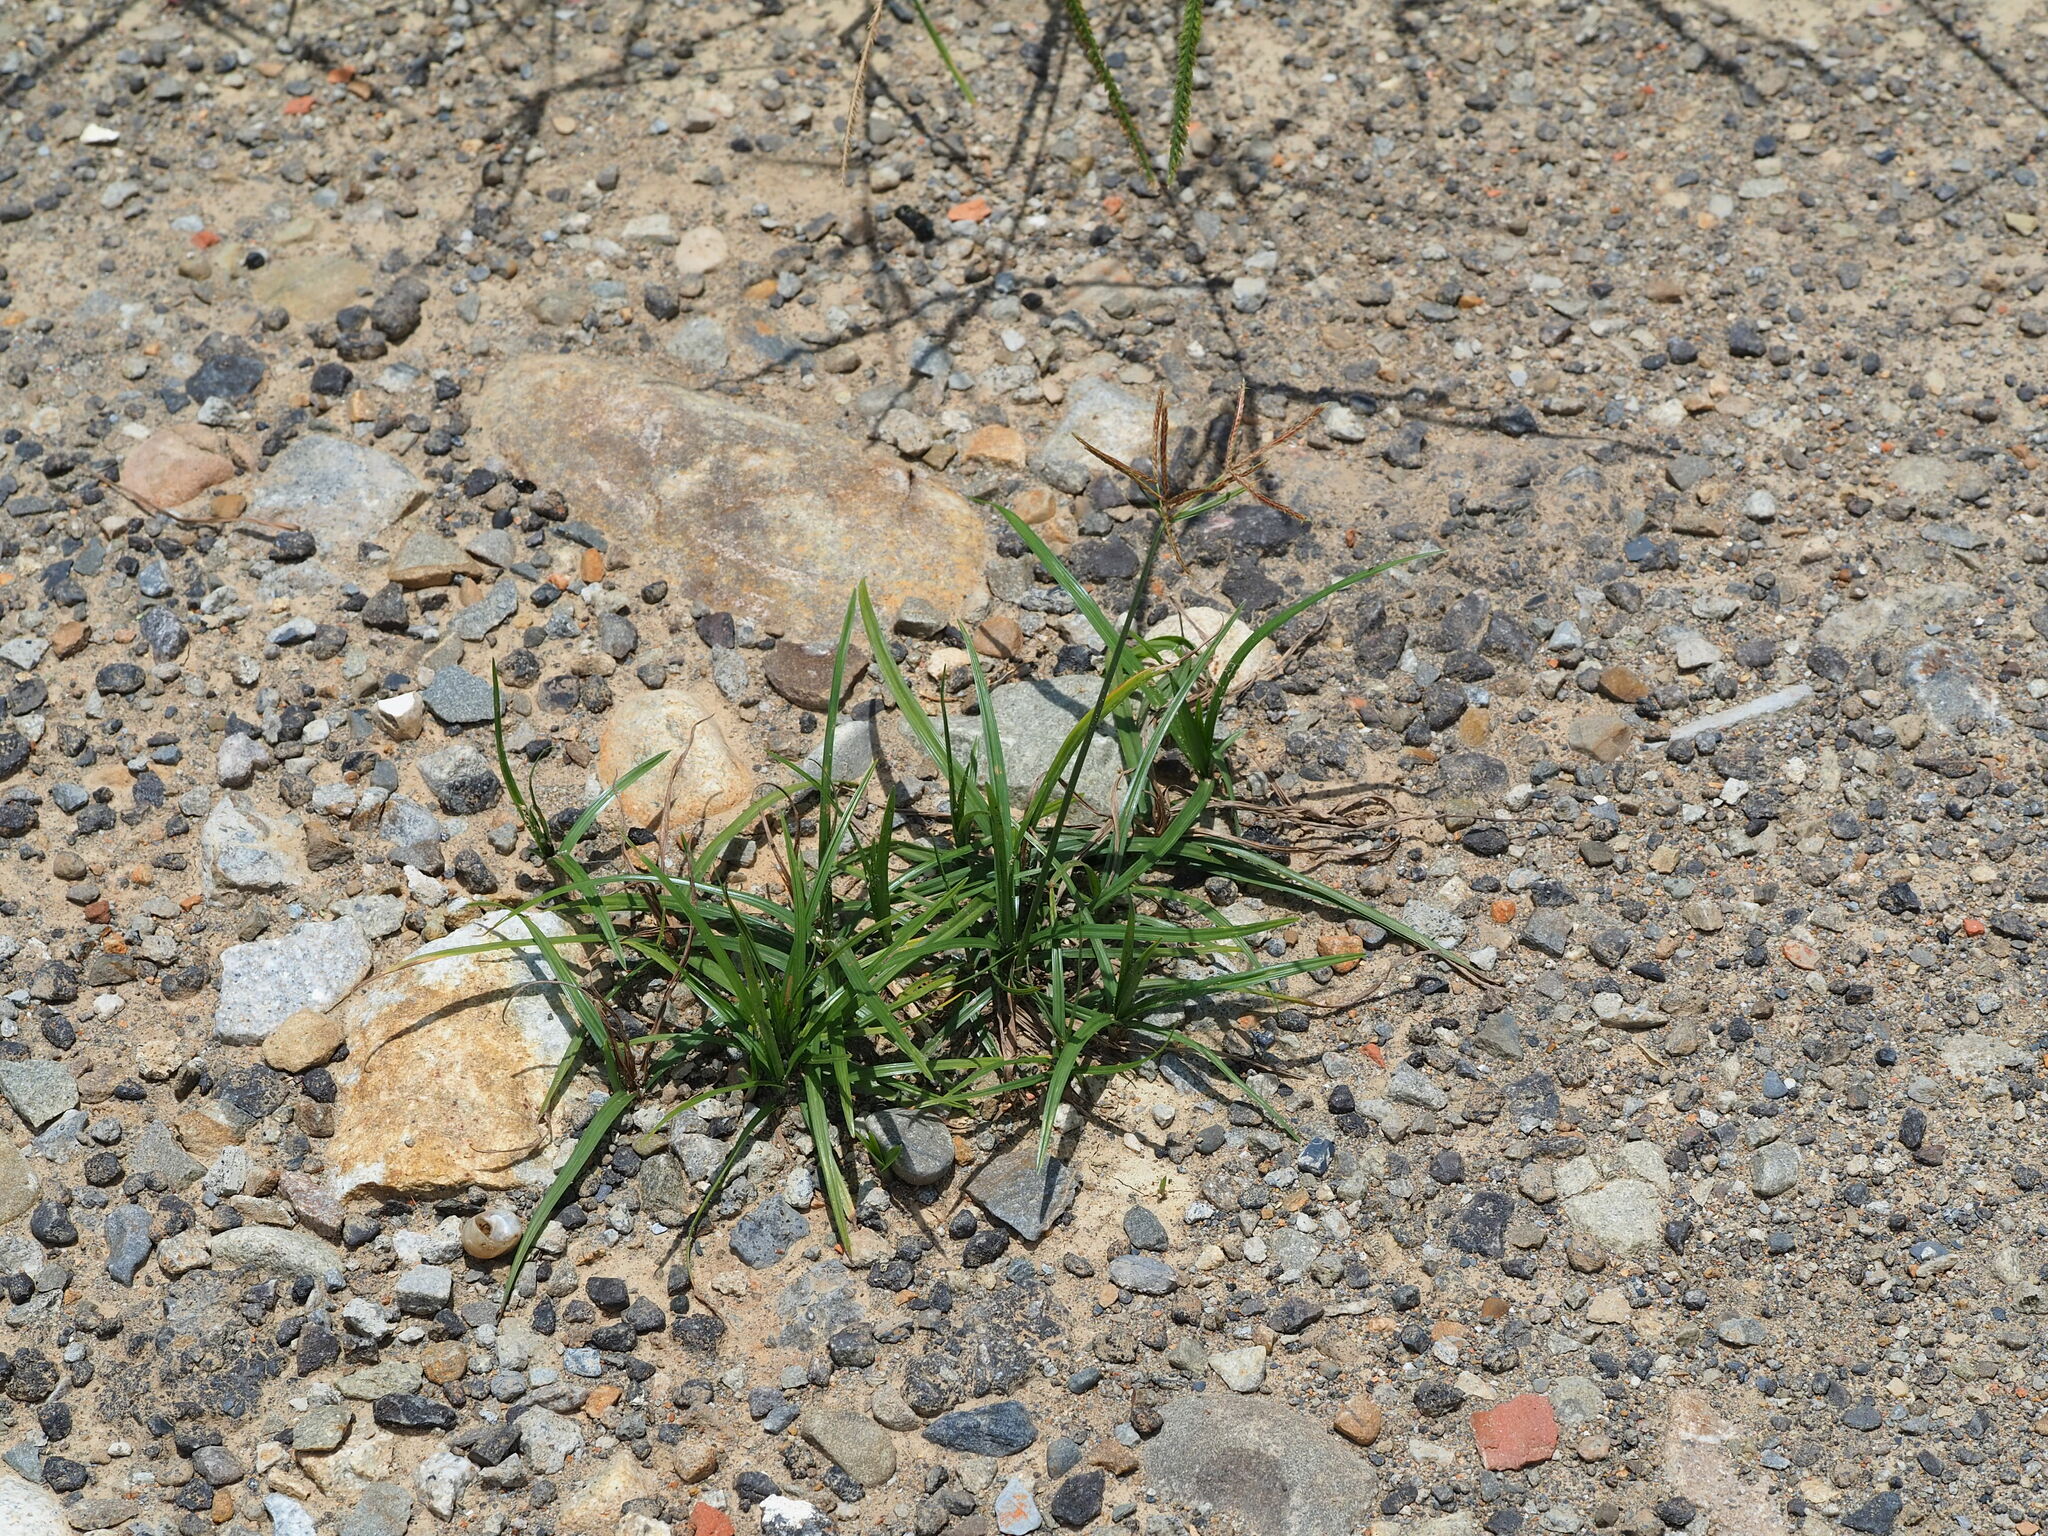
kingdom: Plantae
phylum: Tracheophyta
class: Liliopsida
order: Poales
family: Cyperaceae
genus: Cyperus
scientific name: Cyperus rotundus
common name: Nutgrass
